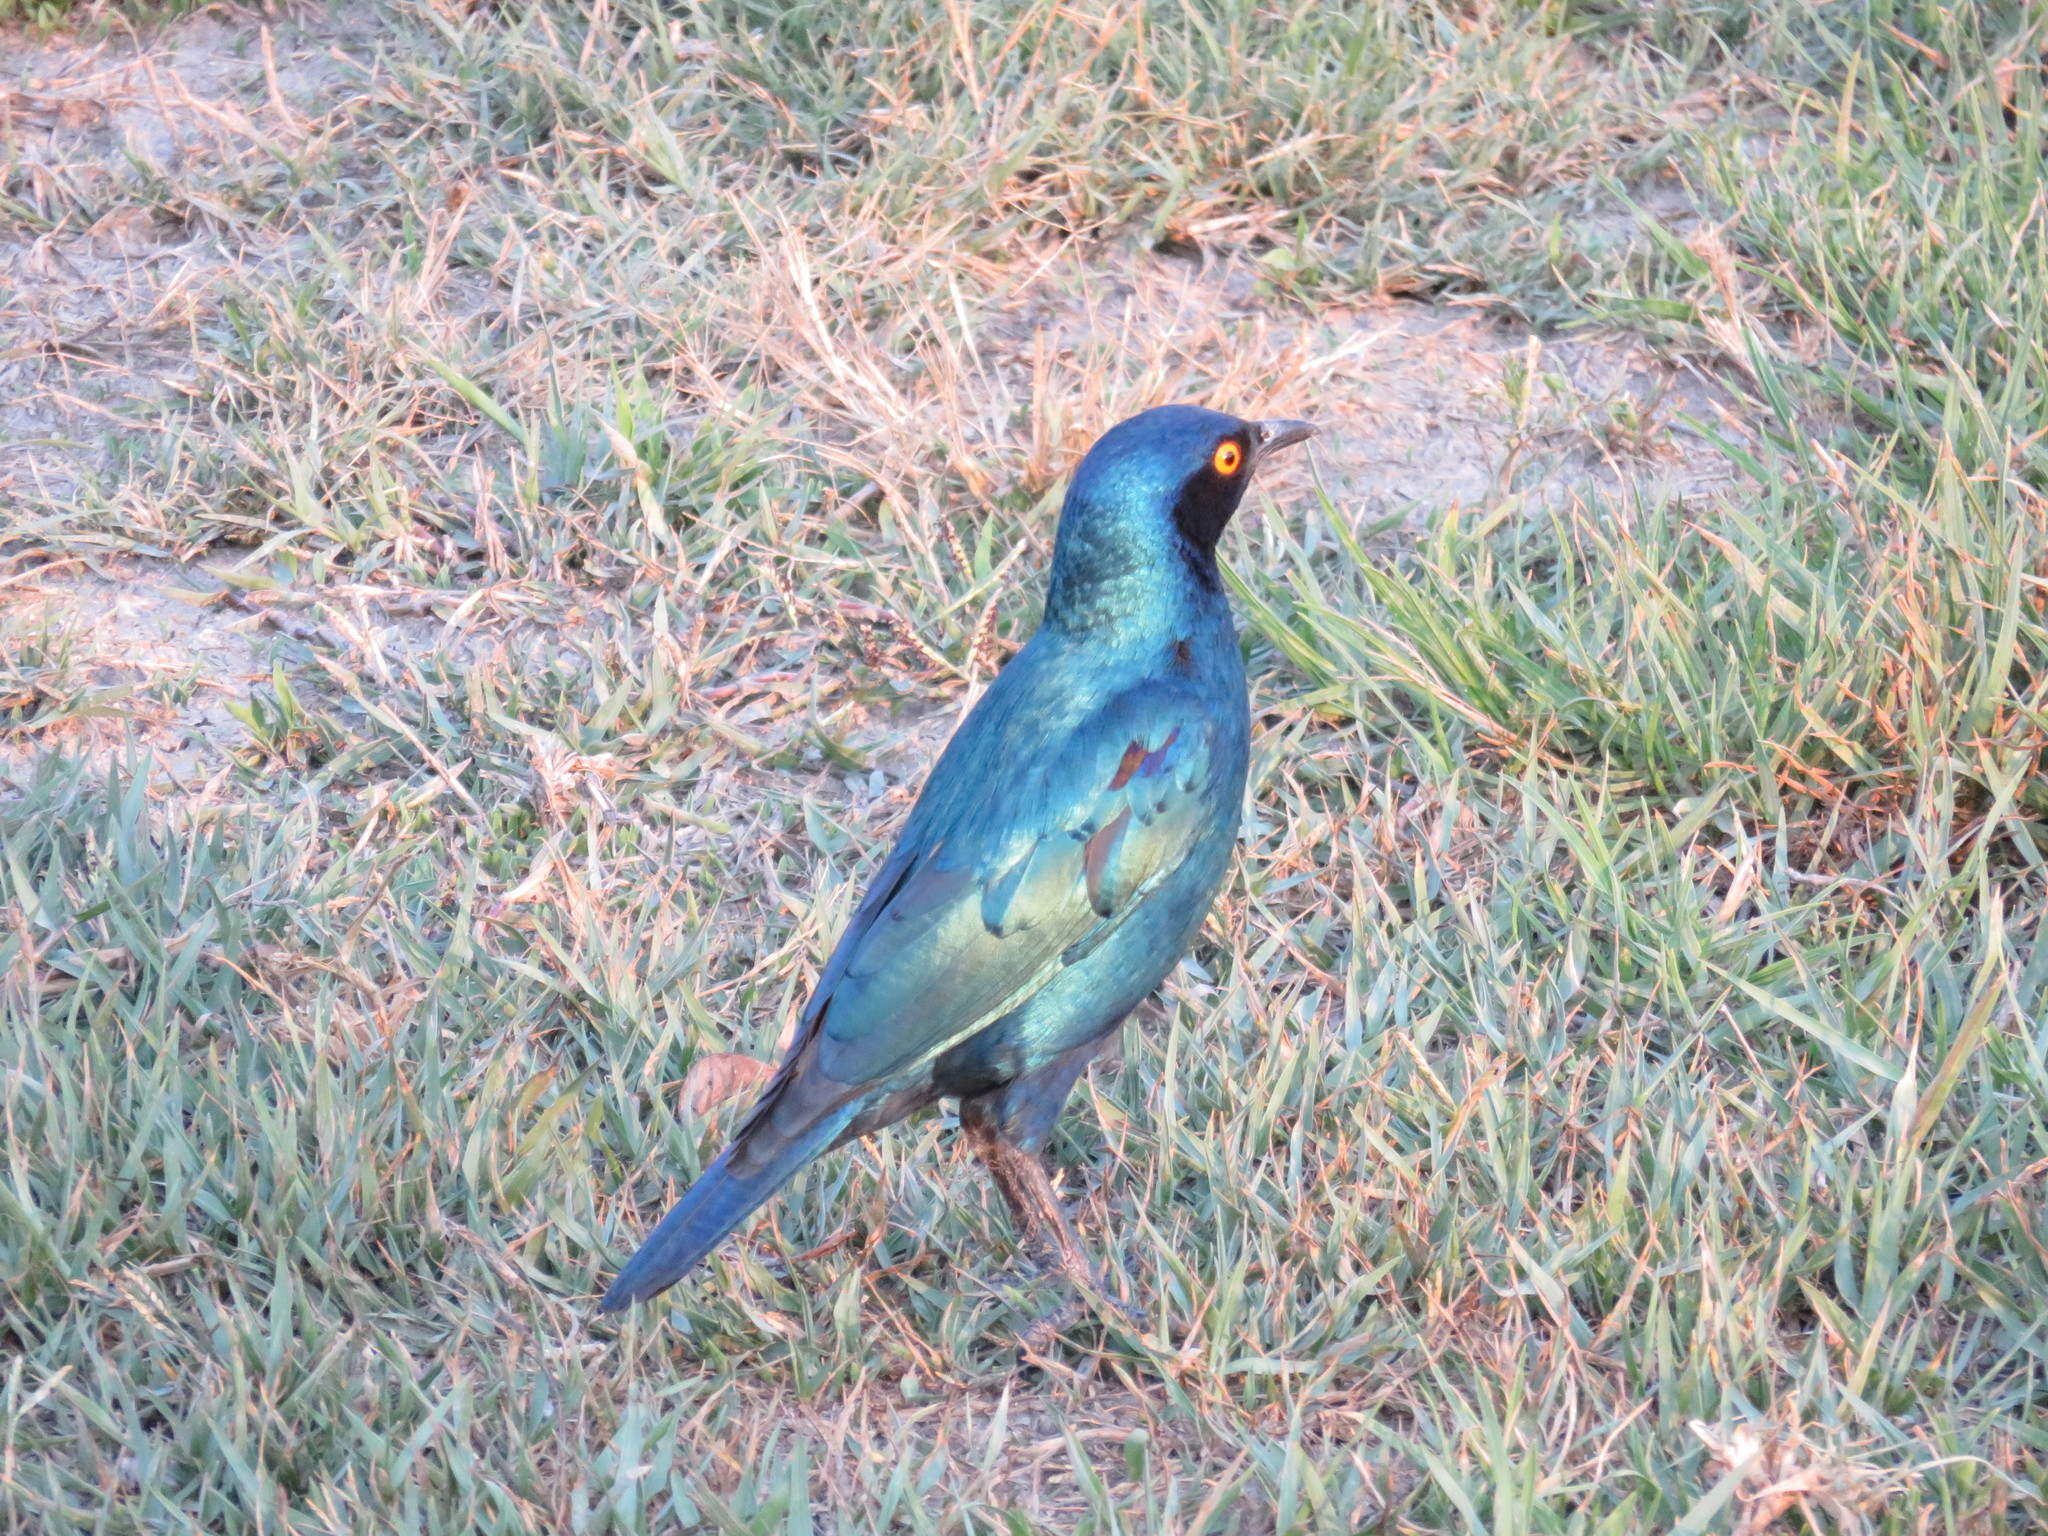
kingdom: Animalia
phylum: Chordata
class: Aves
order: Passeriformes
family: Sturnidae
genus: Lamprotornis
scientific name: Lamprotornis chloropterus
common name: Lesser blue-eared starling
